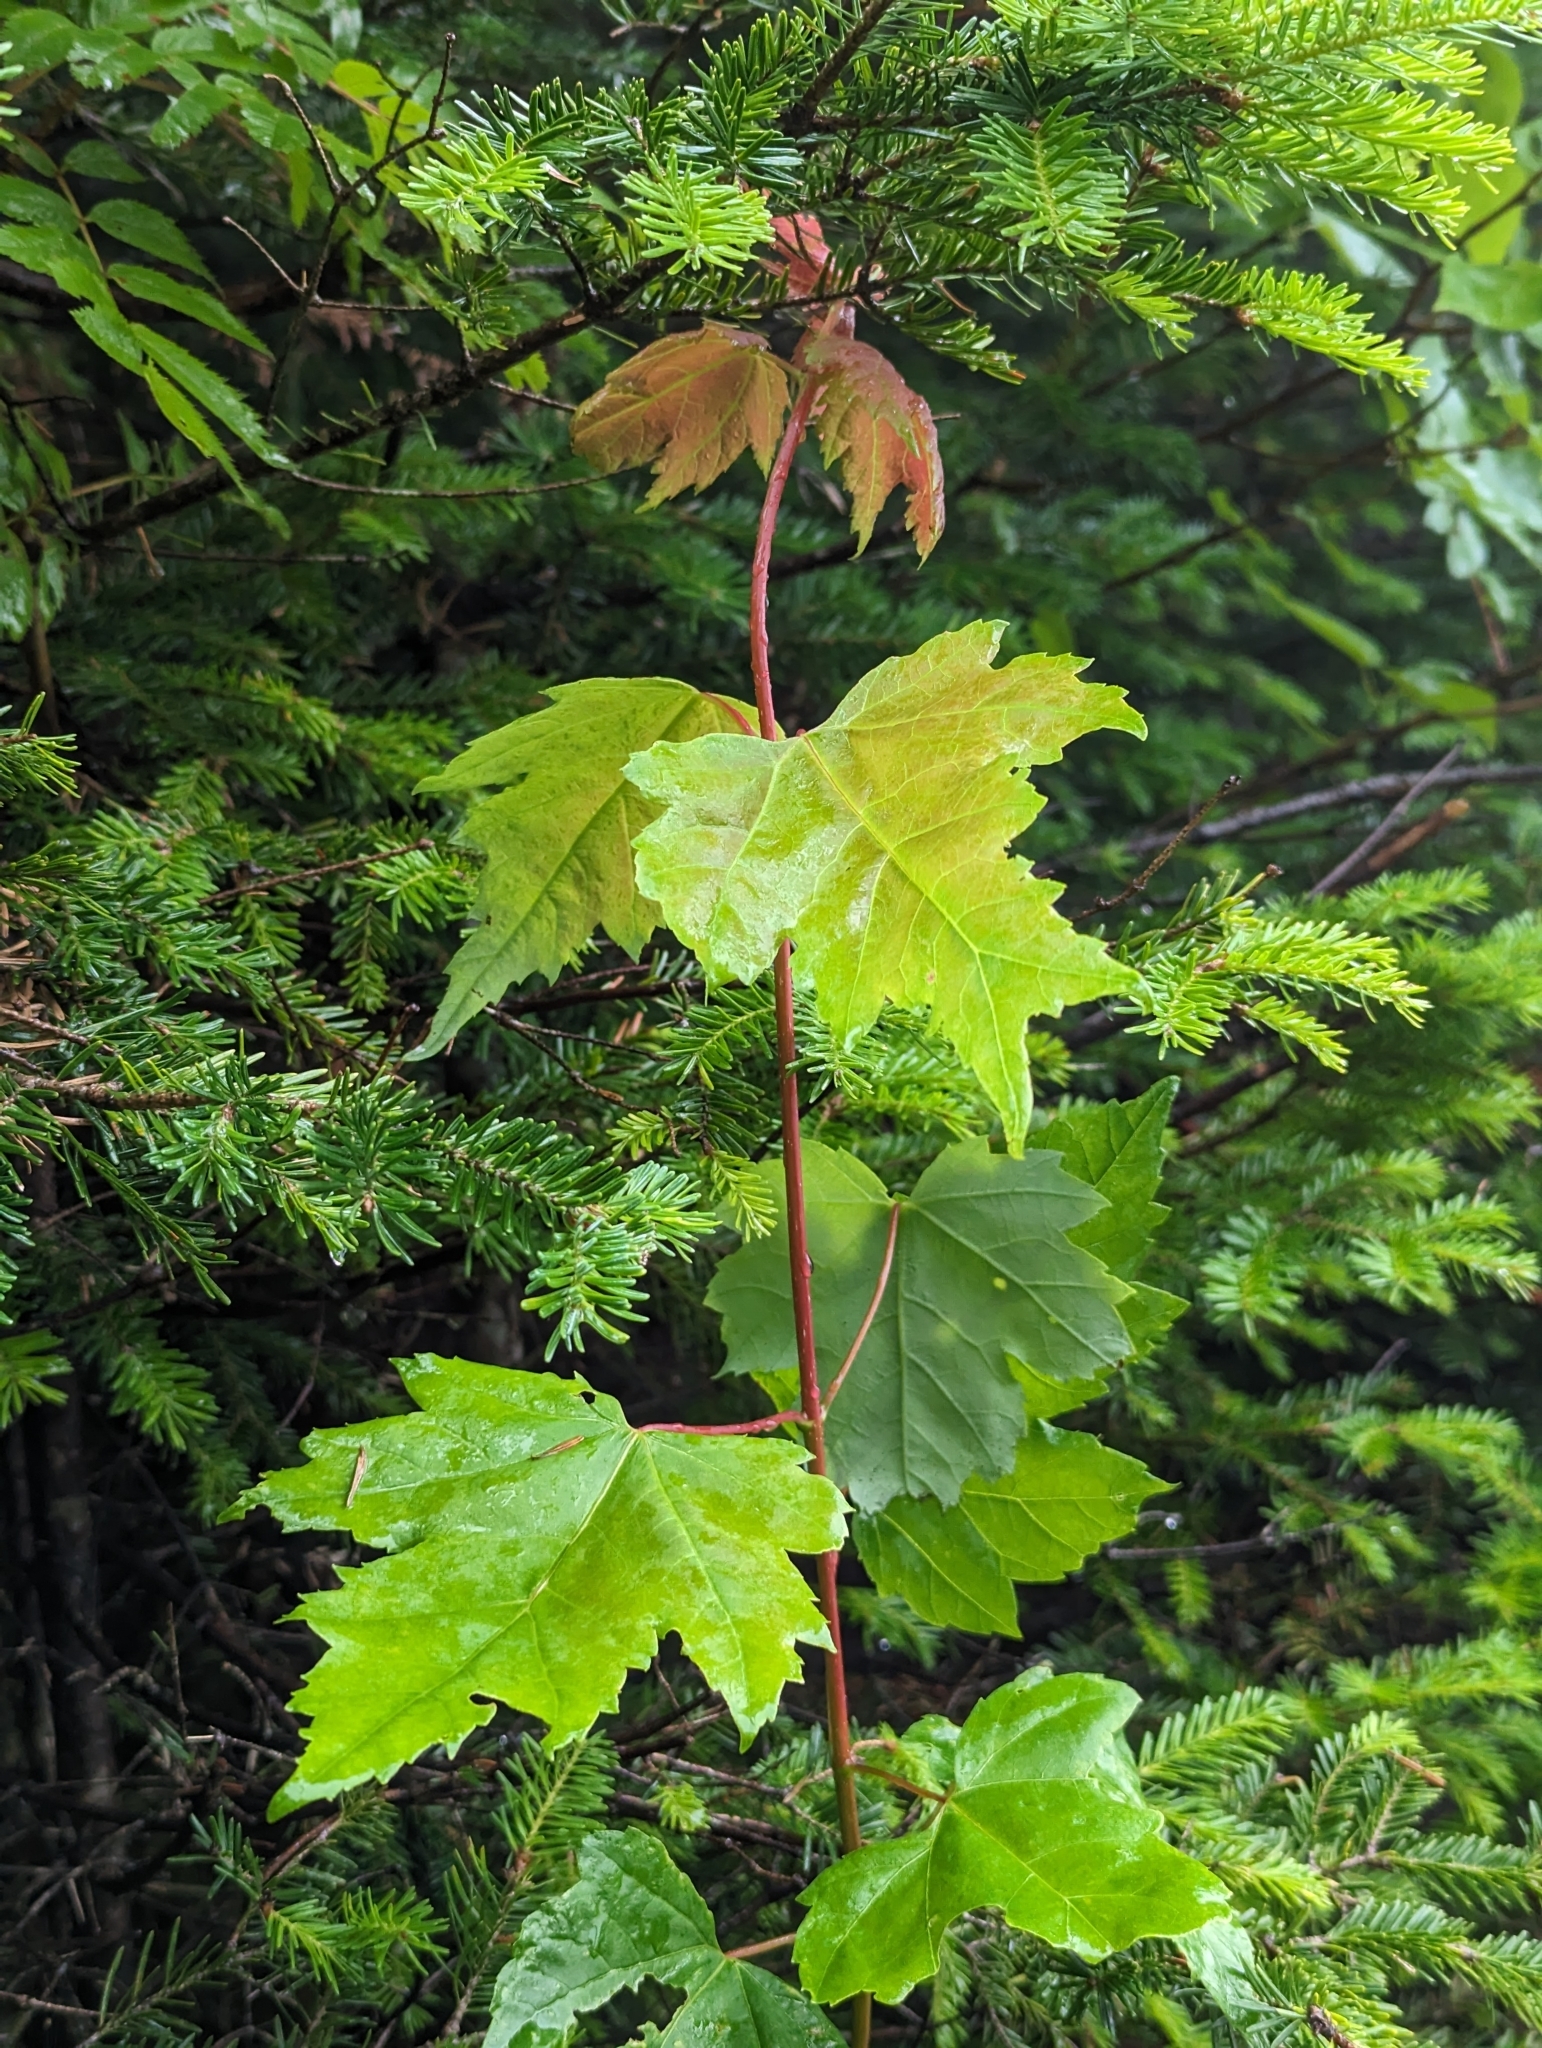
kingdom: Plantae
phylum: Tracheophyta
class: Magnoliopsida
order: Sapindales
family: Sapindaceae
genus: Acer
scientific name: Acer rubrum
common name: Red maple
